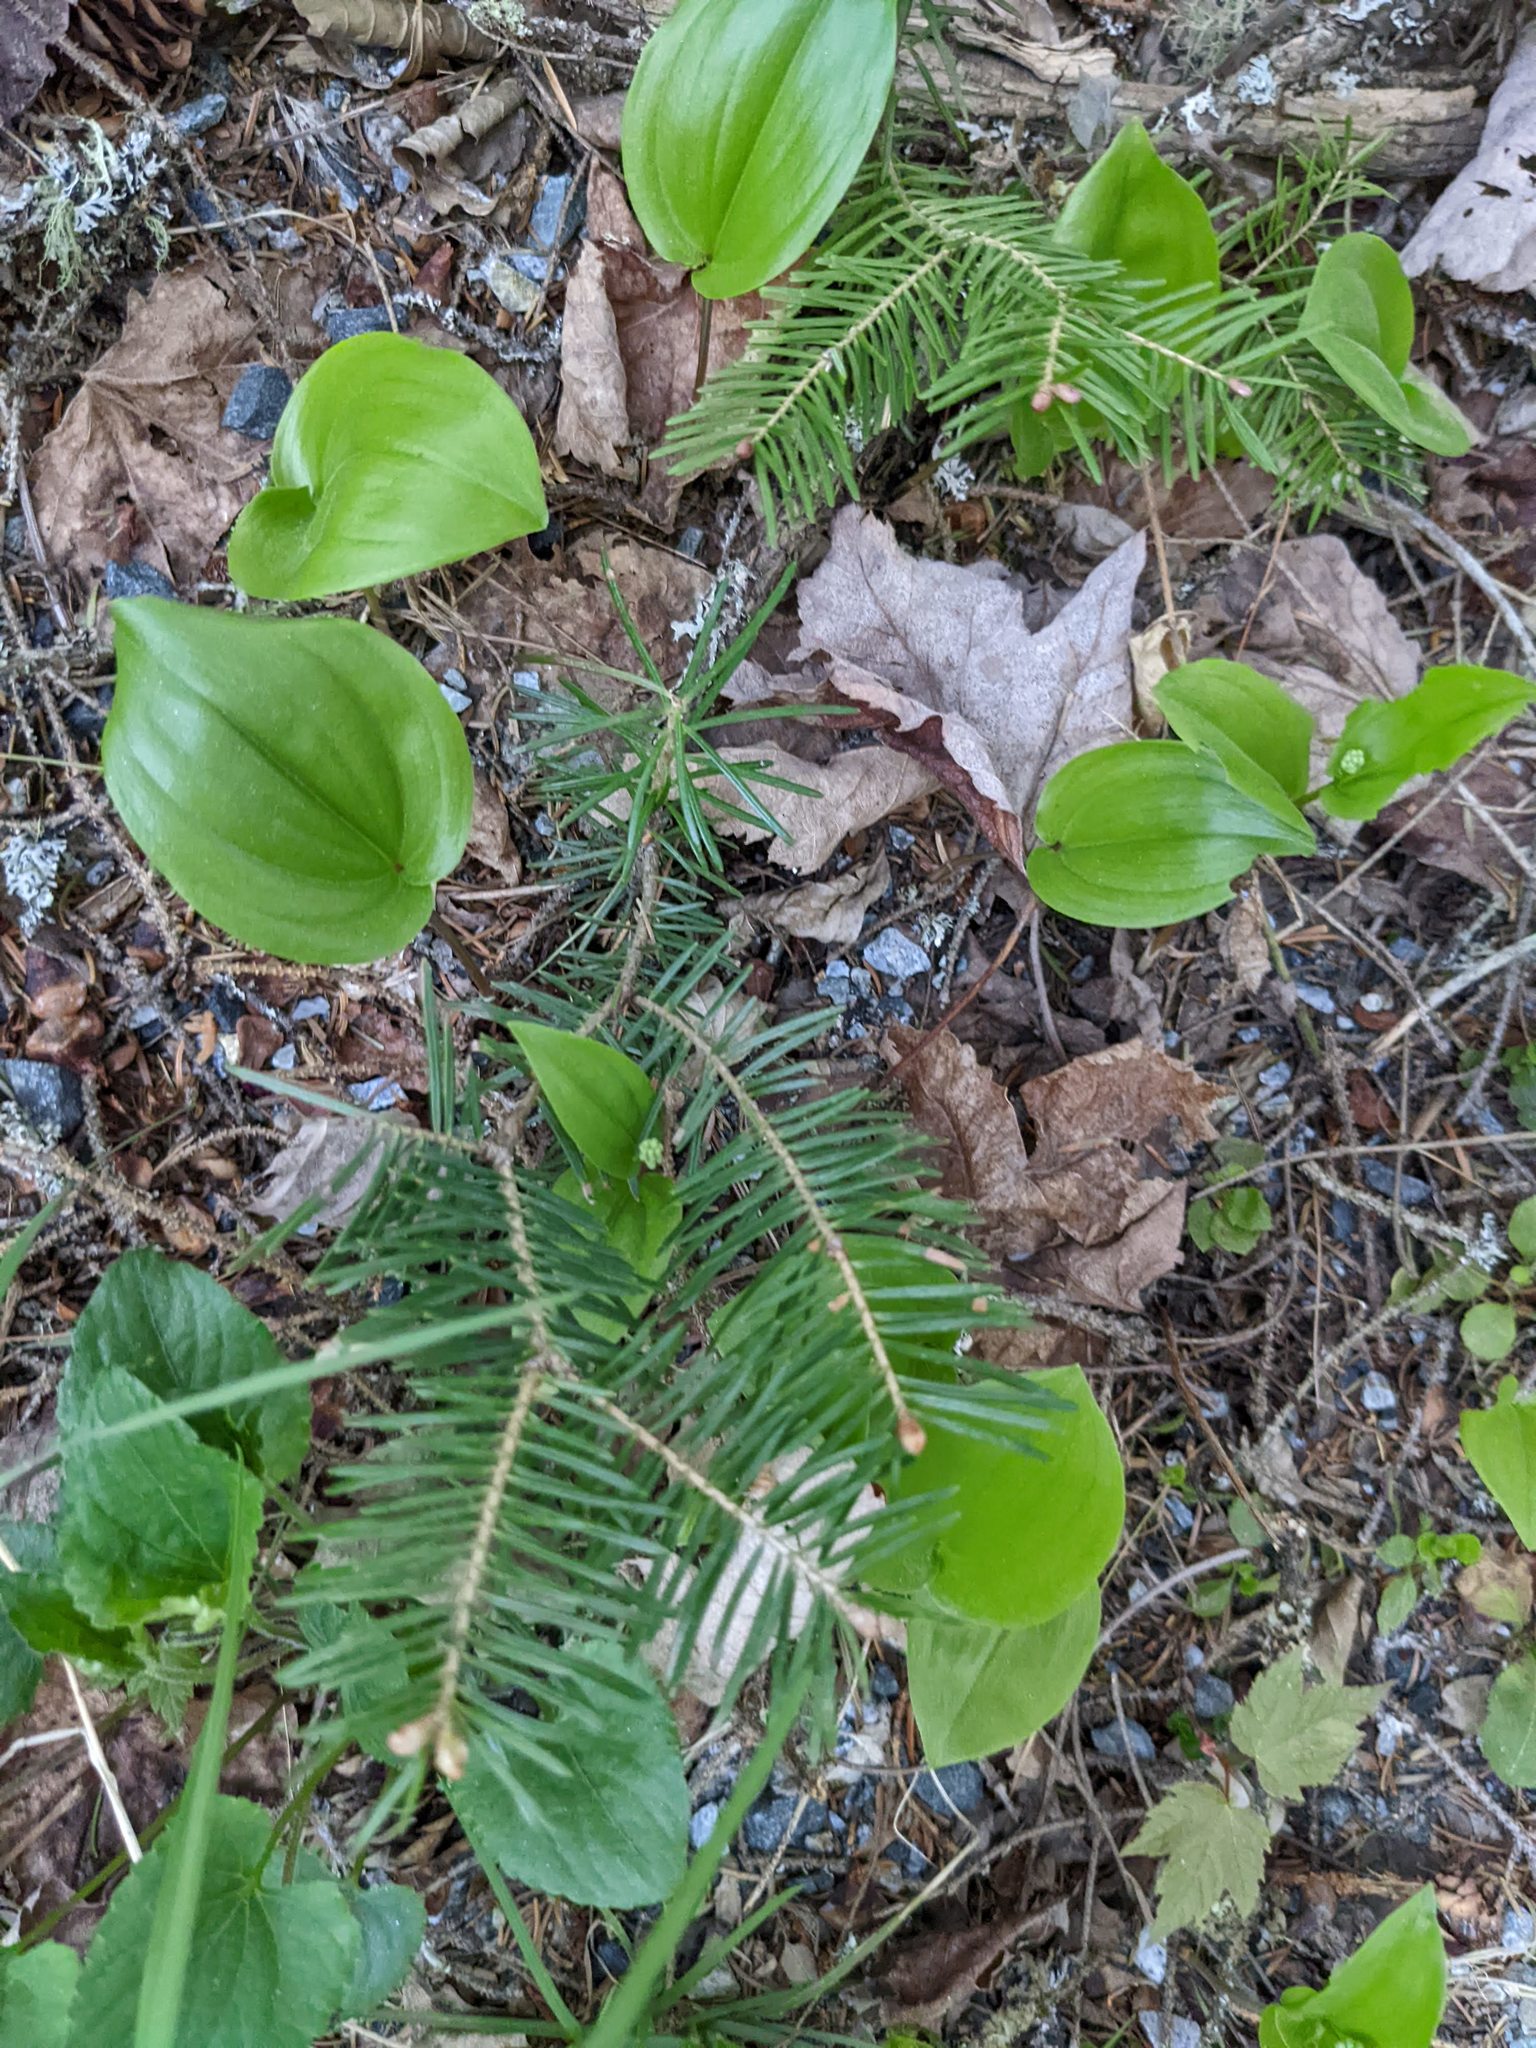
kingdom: Plantae
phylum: Tracheophyta
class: Pinopsida
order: Pinales
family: Pinaceae
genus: Abies
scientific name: Abies balsamea
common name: Balsam fir
